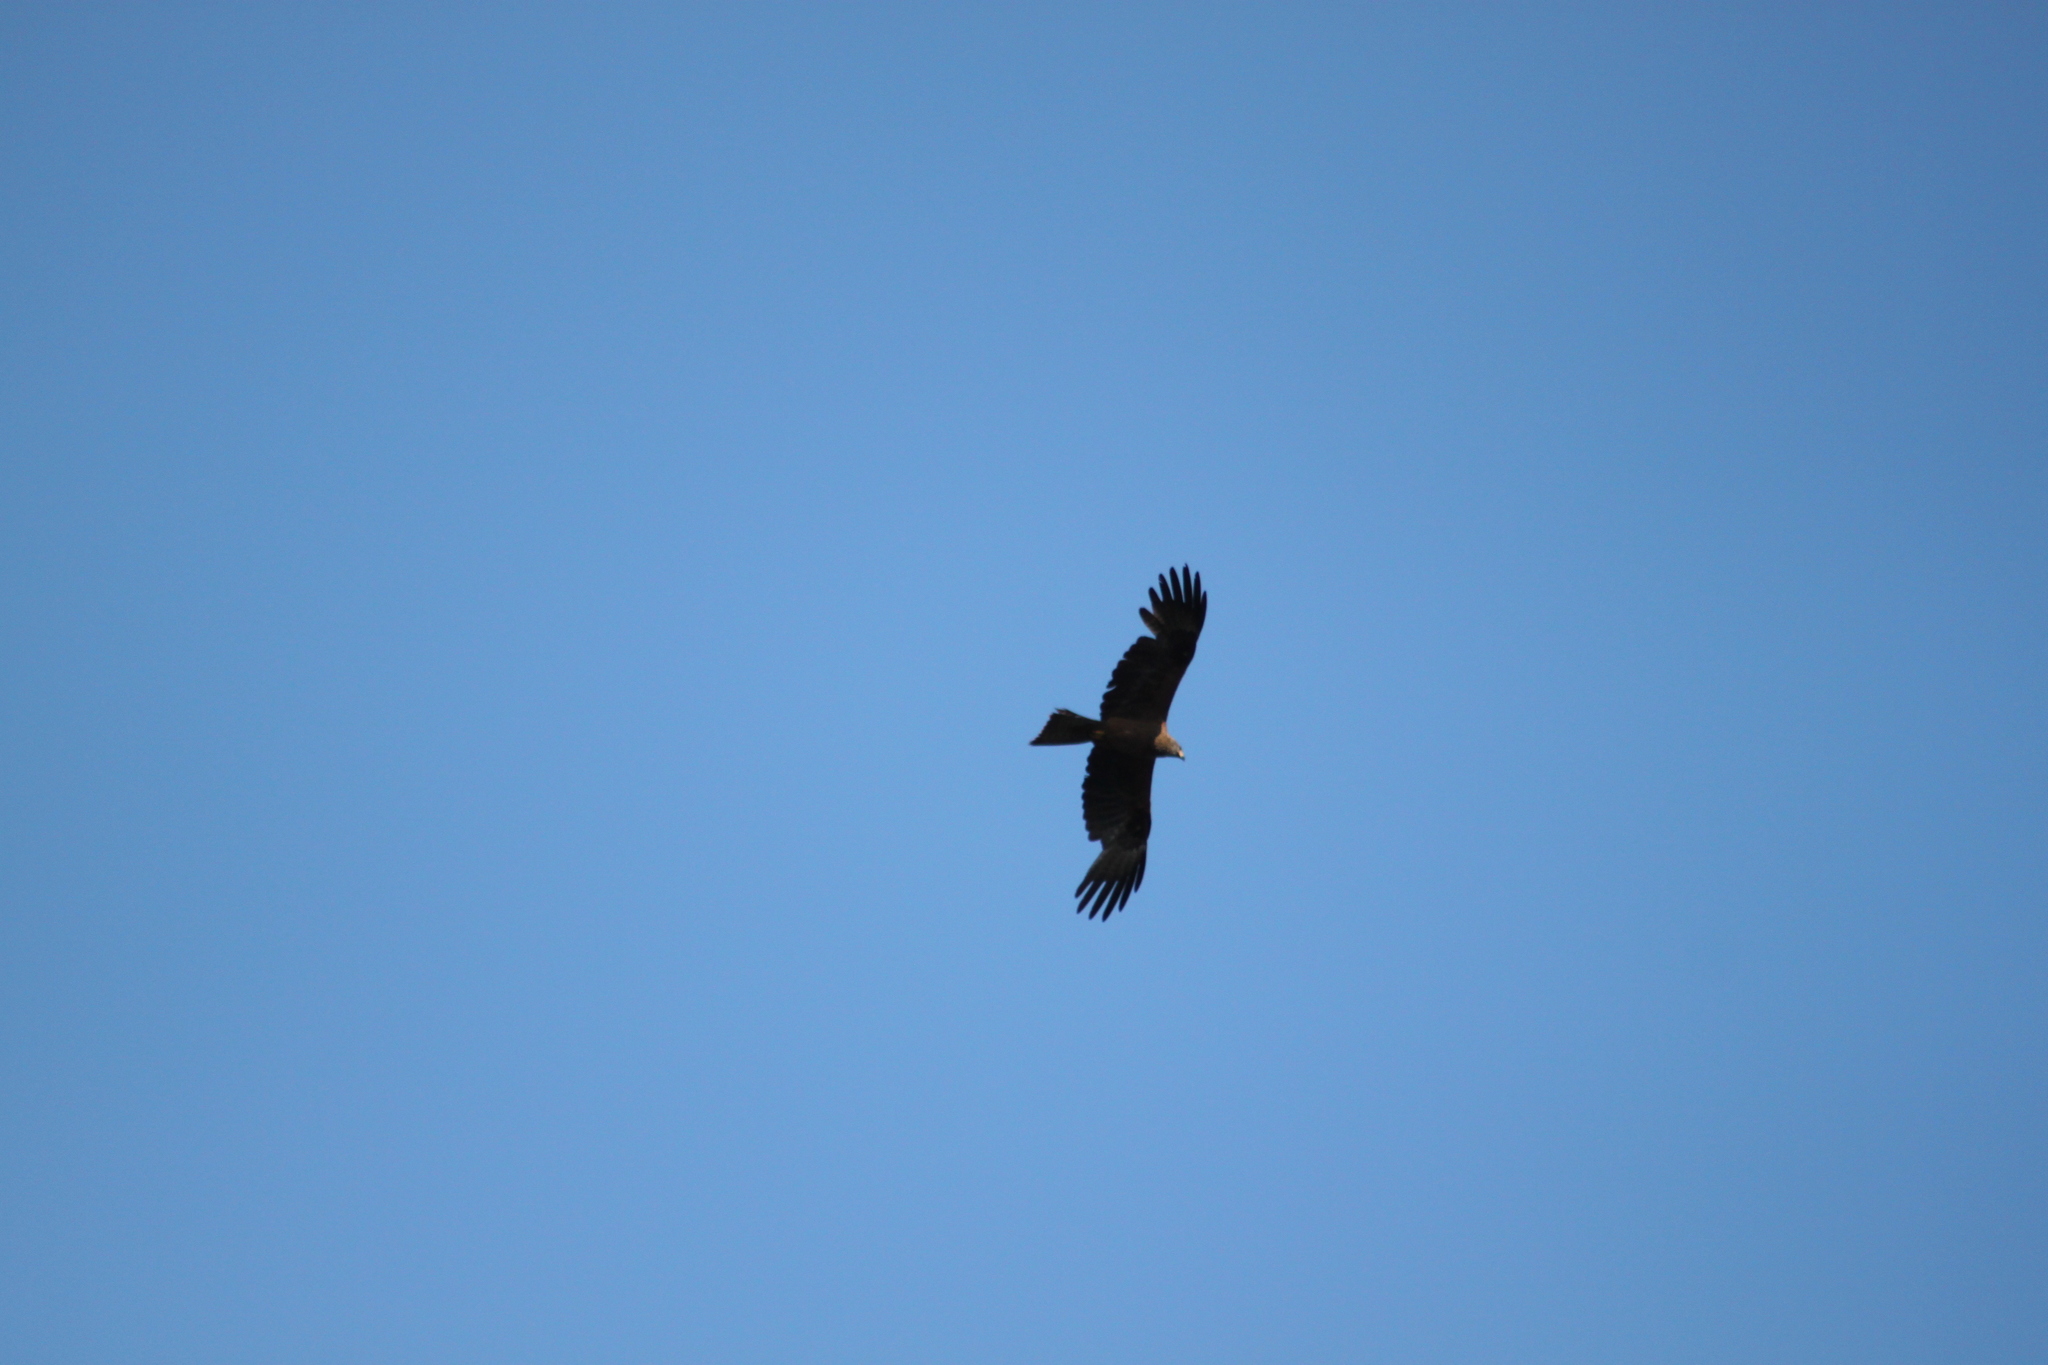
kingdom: Animalia
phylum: Chordata
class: Aves
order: Accipitriformes
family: Accipitridae
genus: Milvus
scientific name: Milvus migrans
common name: Black kite
